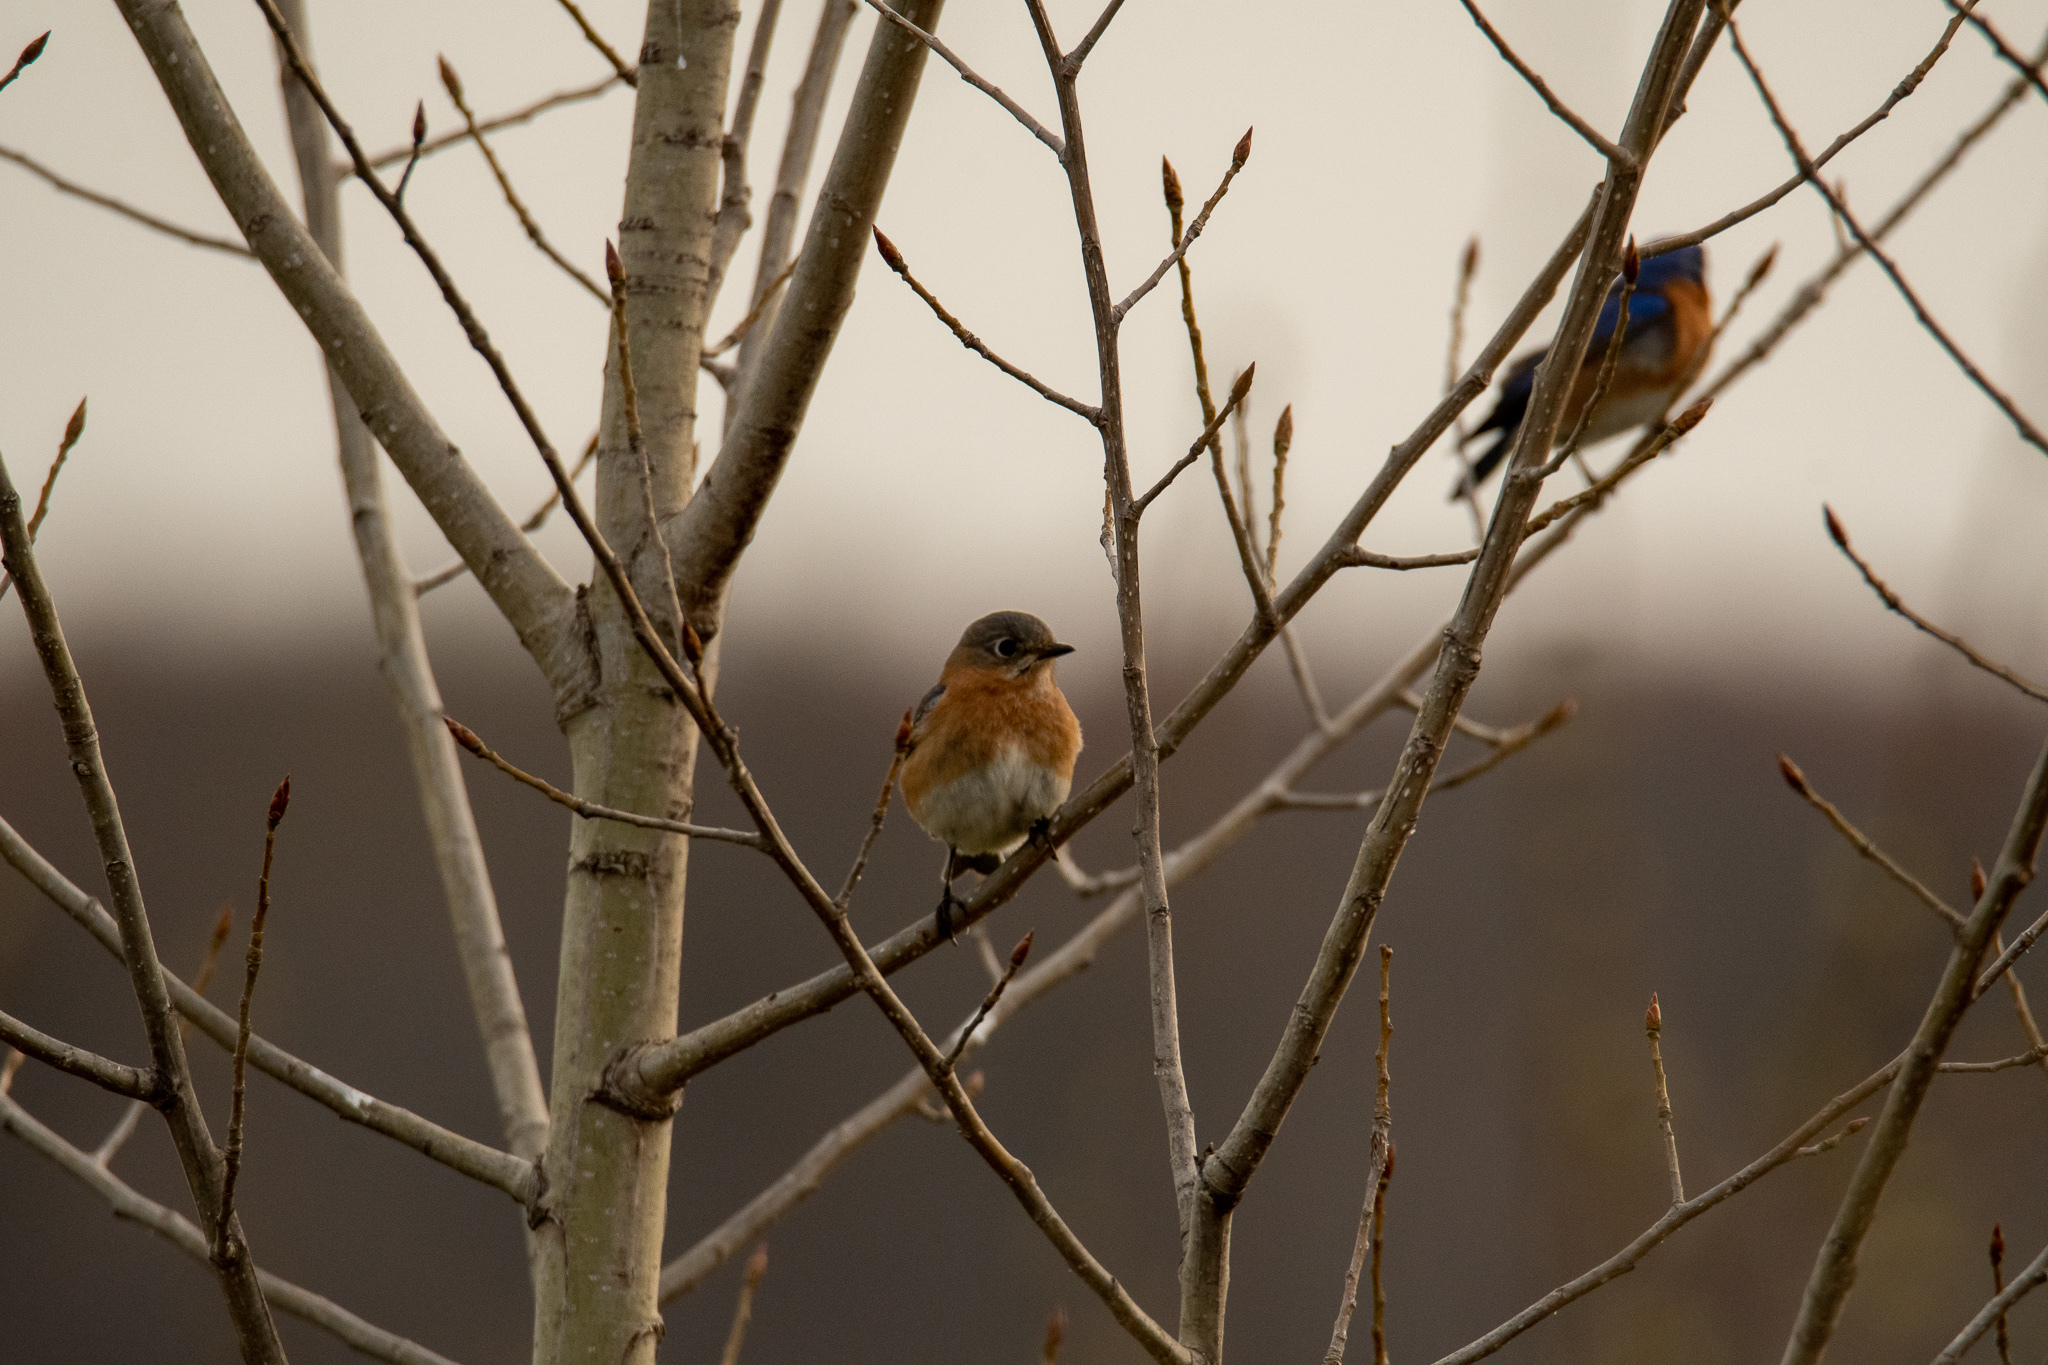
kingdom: Animalia
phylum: Chordata
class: Aves
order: Passeriformes
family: Turdidae
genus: Sialia
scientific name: Sialia sialis
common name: Eastern bluebird
